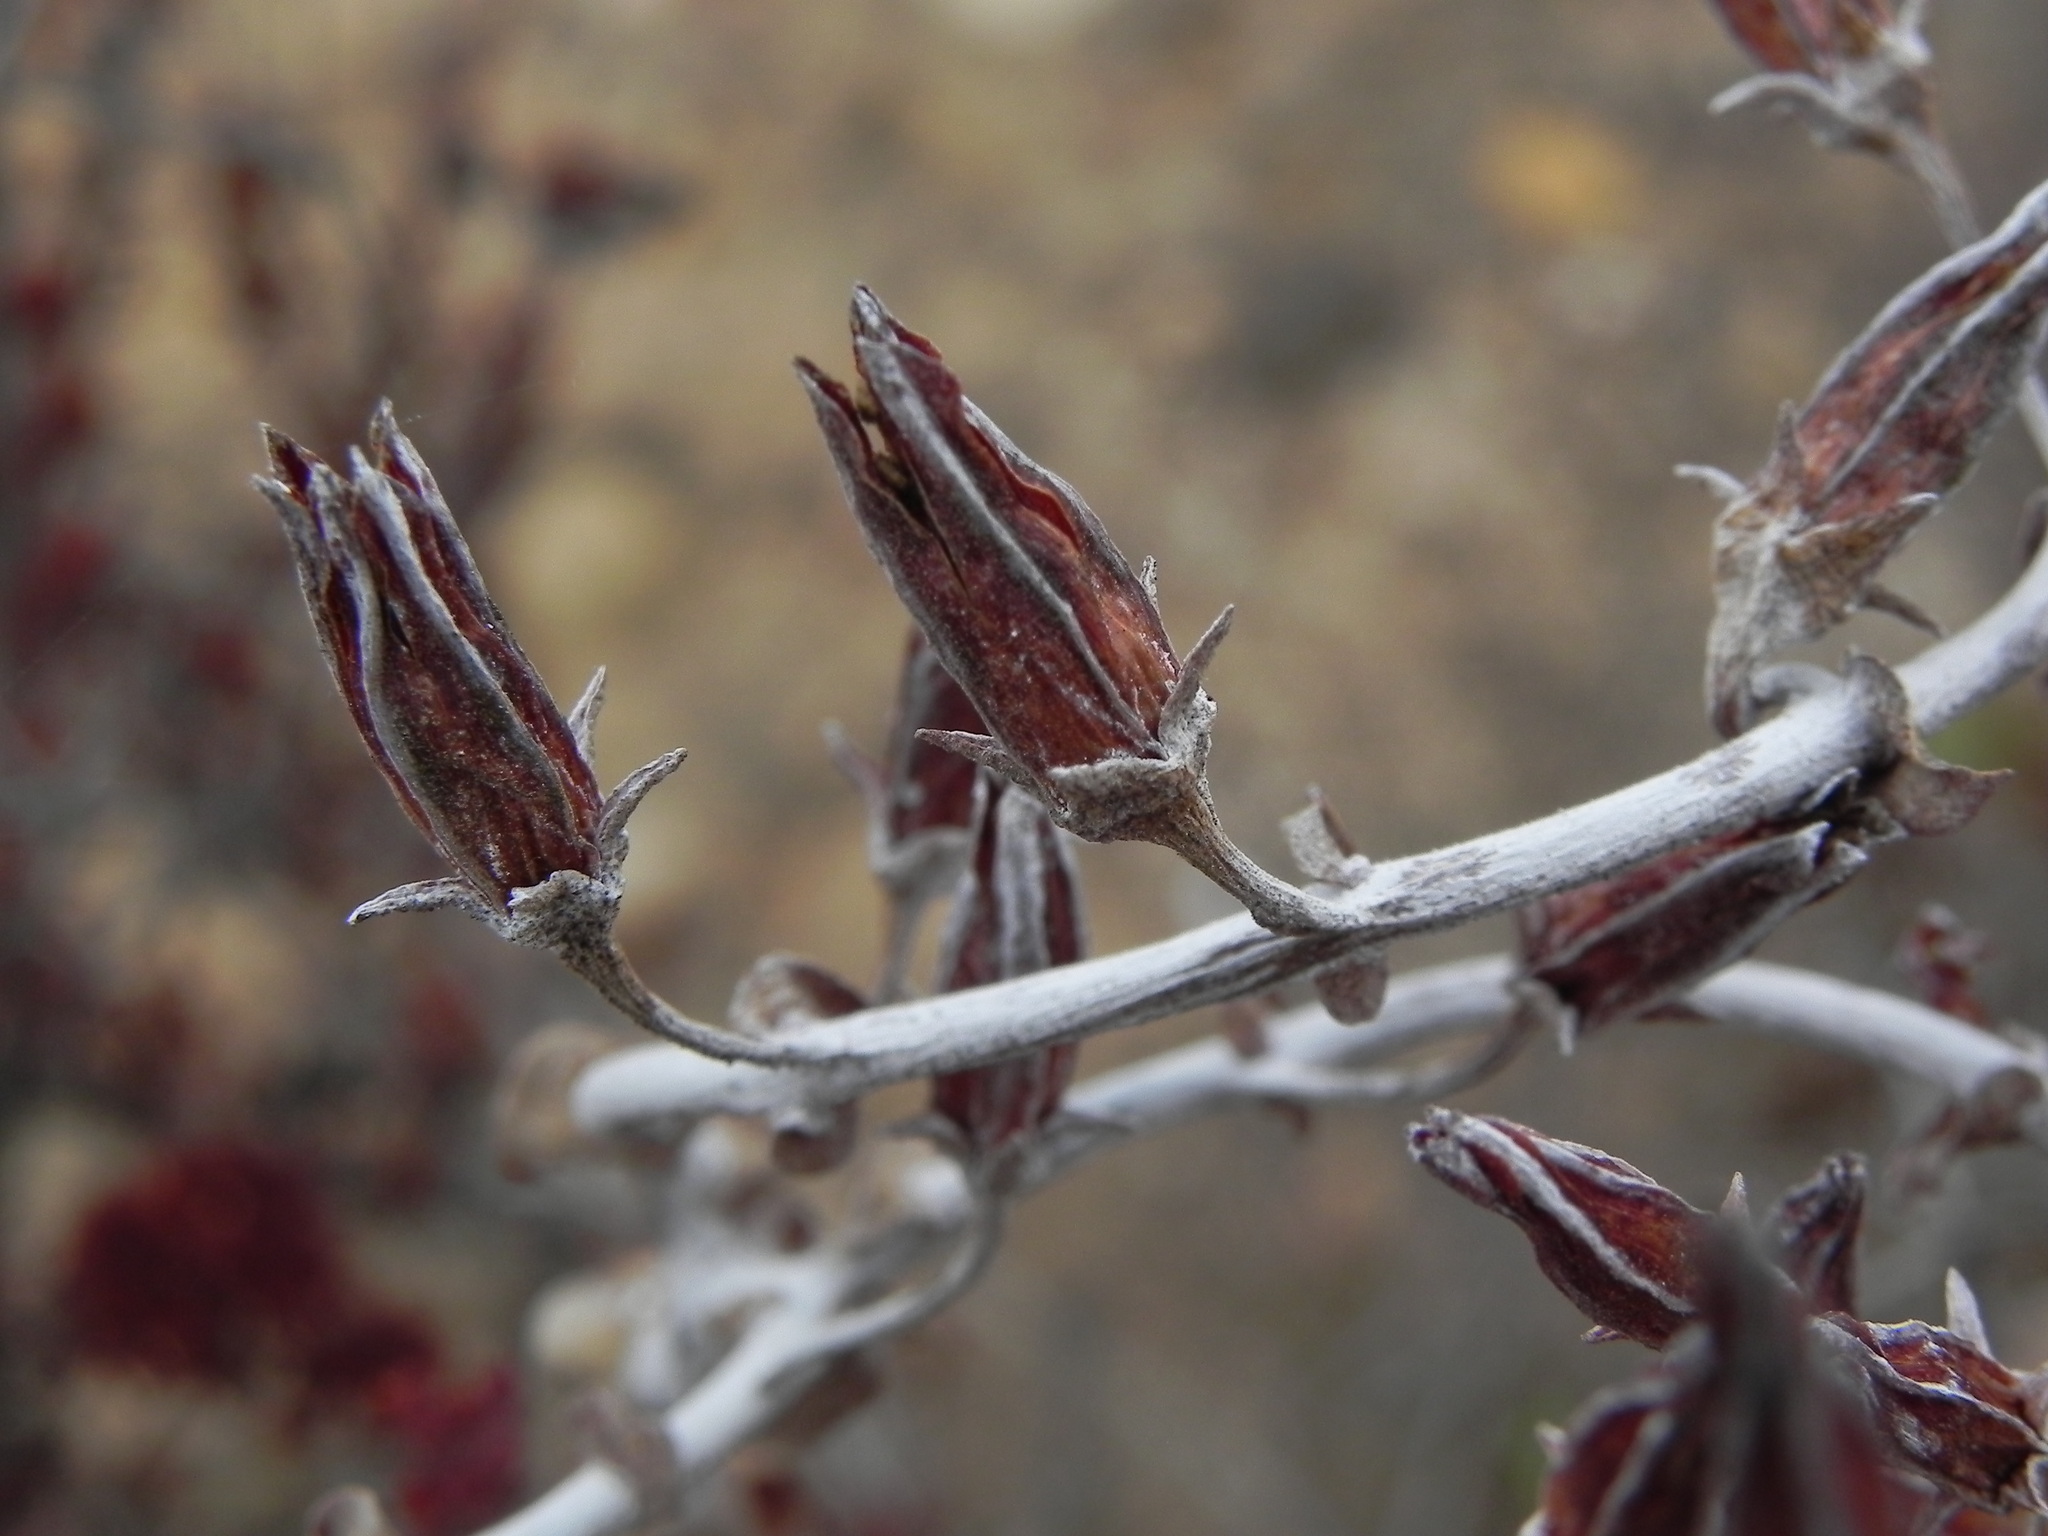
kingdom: Plantae
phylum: Tracheophyta
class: Magnoliopsida
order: Saxifragales
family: Crassulaceae
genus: Dudleya
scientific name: Dudleya pulverulenta
